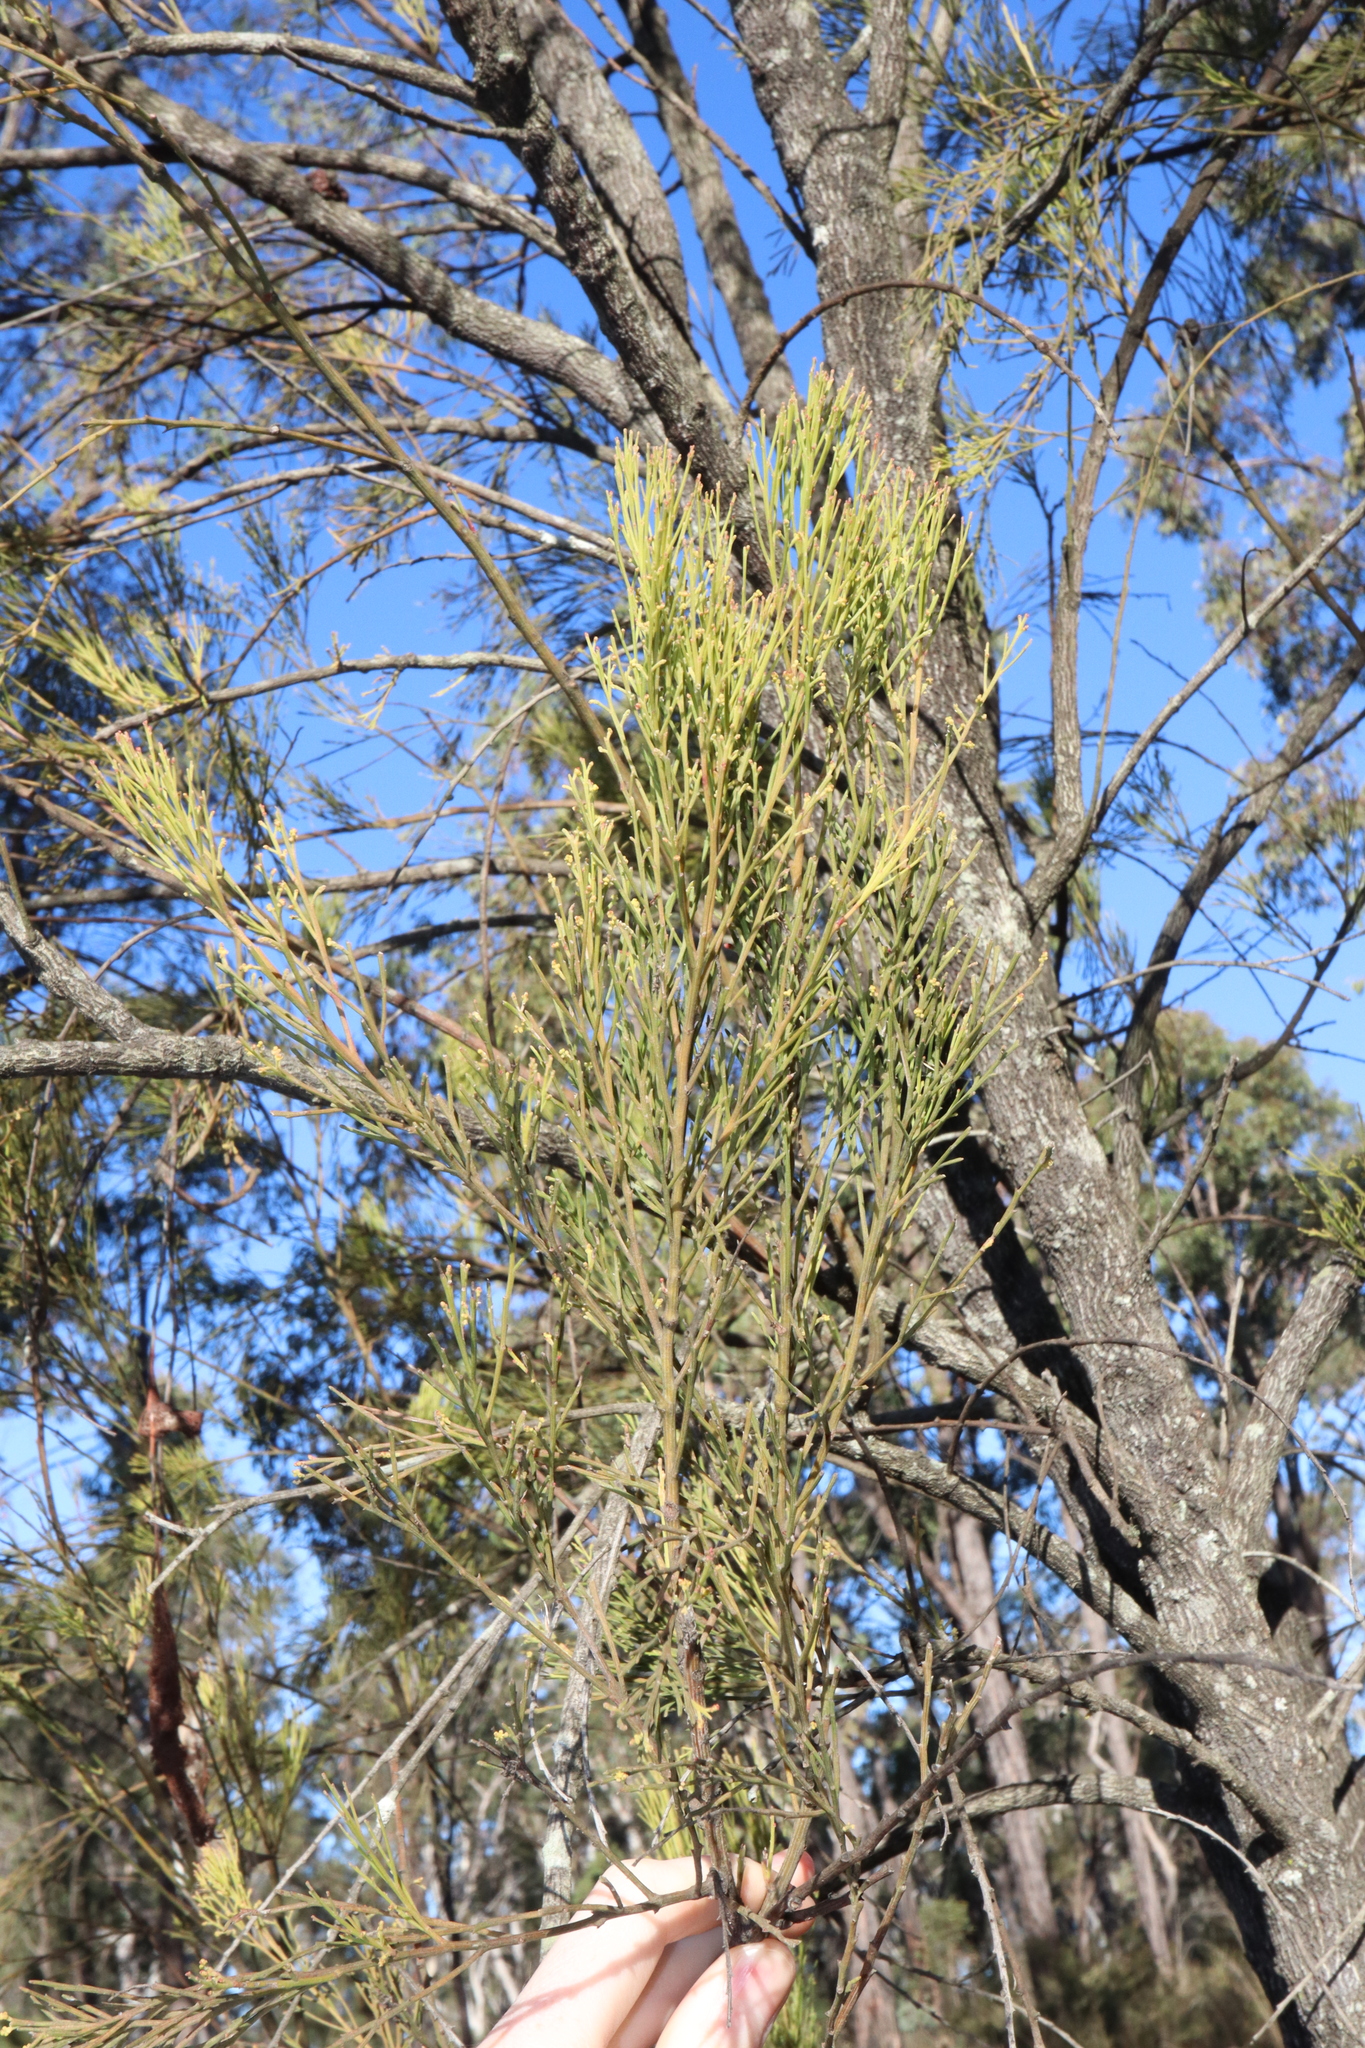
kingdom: Plantae
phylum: Tracheophyta
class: Magnoliopsida
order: Santalales
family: Santalaceae
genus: Exocarpos
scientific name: Exocarpos strictus
